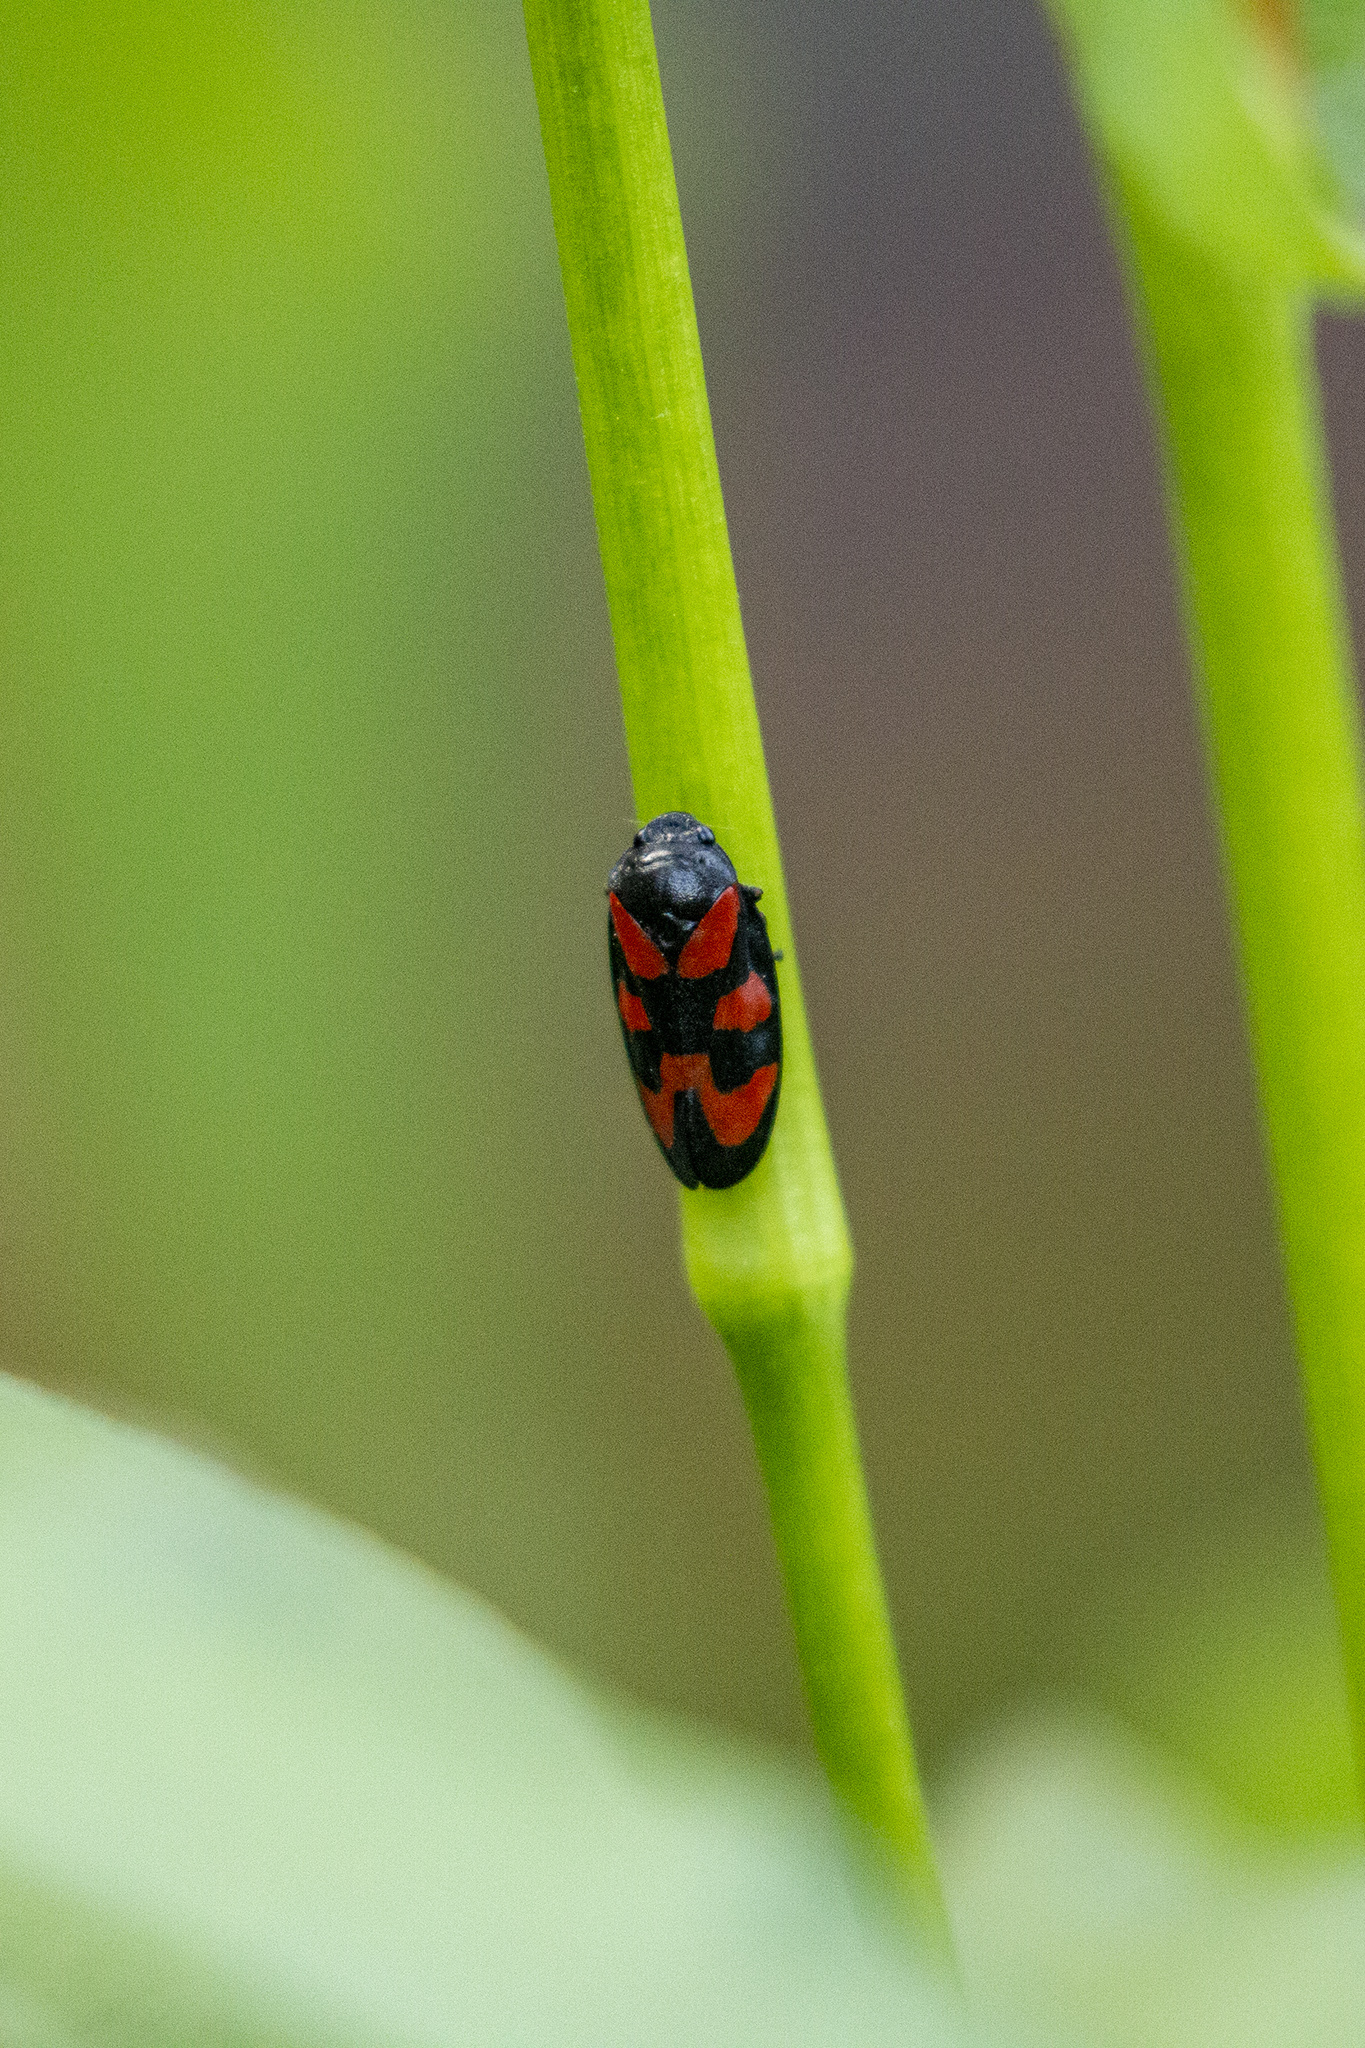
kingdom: Animalia
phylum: Arthropoda
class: Insecta
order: Hemiptera
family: Cercopidae
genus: Cercopis
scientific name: Cercopis vulnerata
